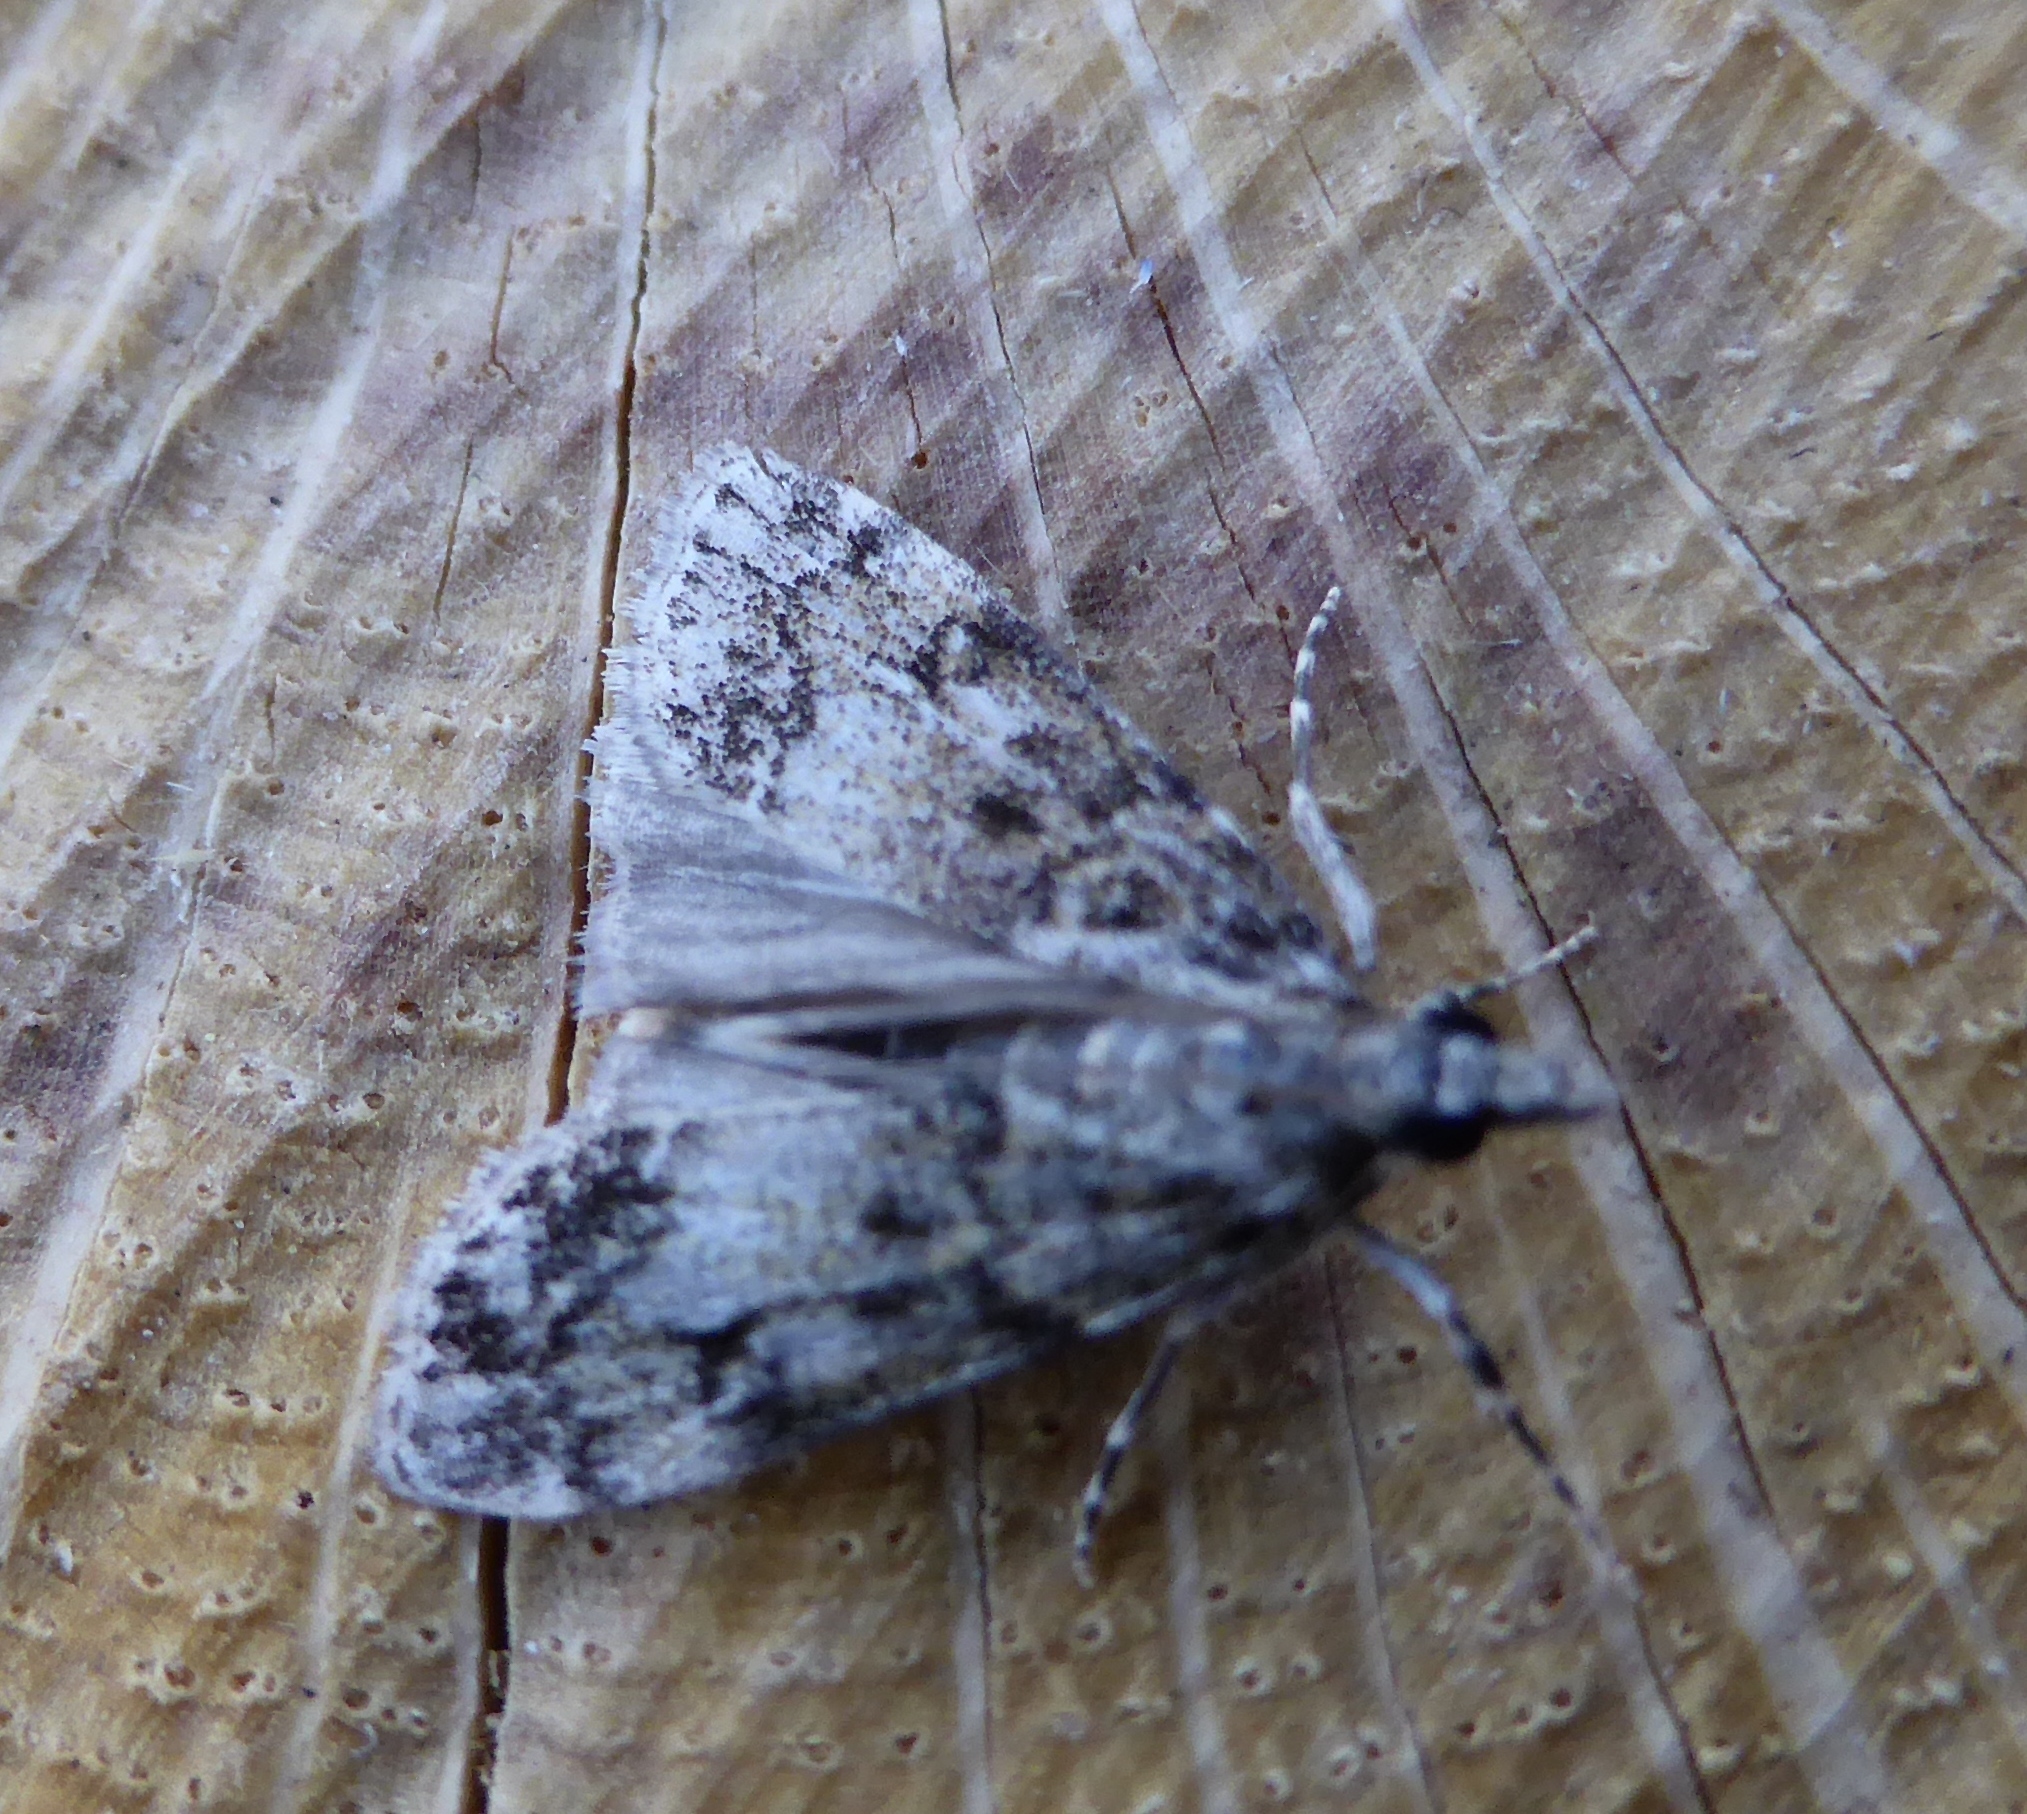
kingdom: Animalia
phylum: Arthropoda
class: Insecta
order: Lepidoptera
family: Crambidae
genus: Eudonia
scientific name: Eudonia lacustrata
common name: Little grey
